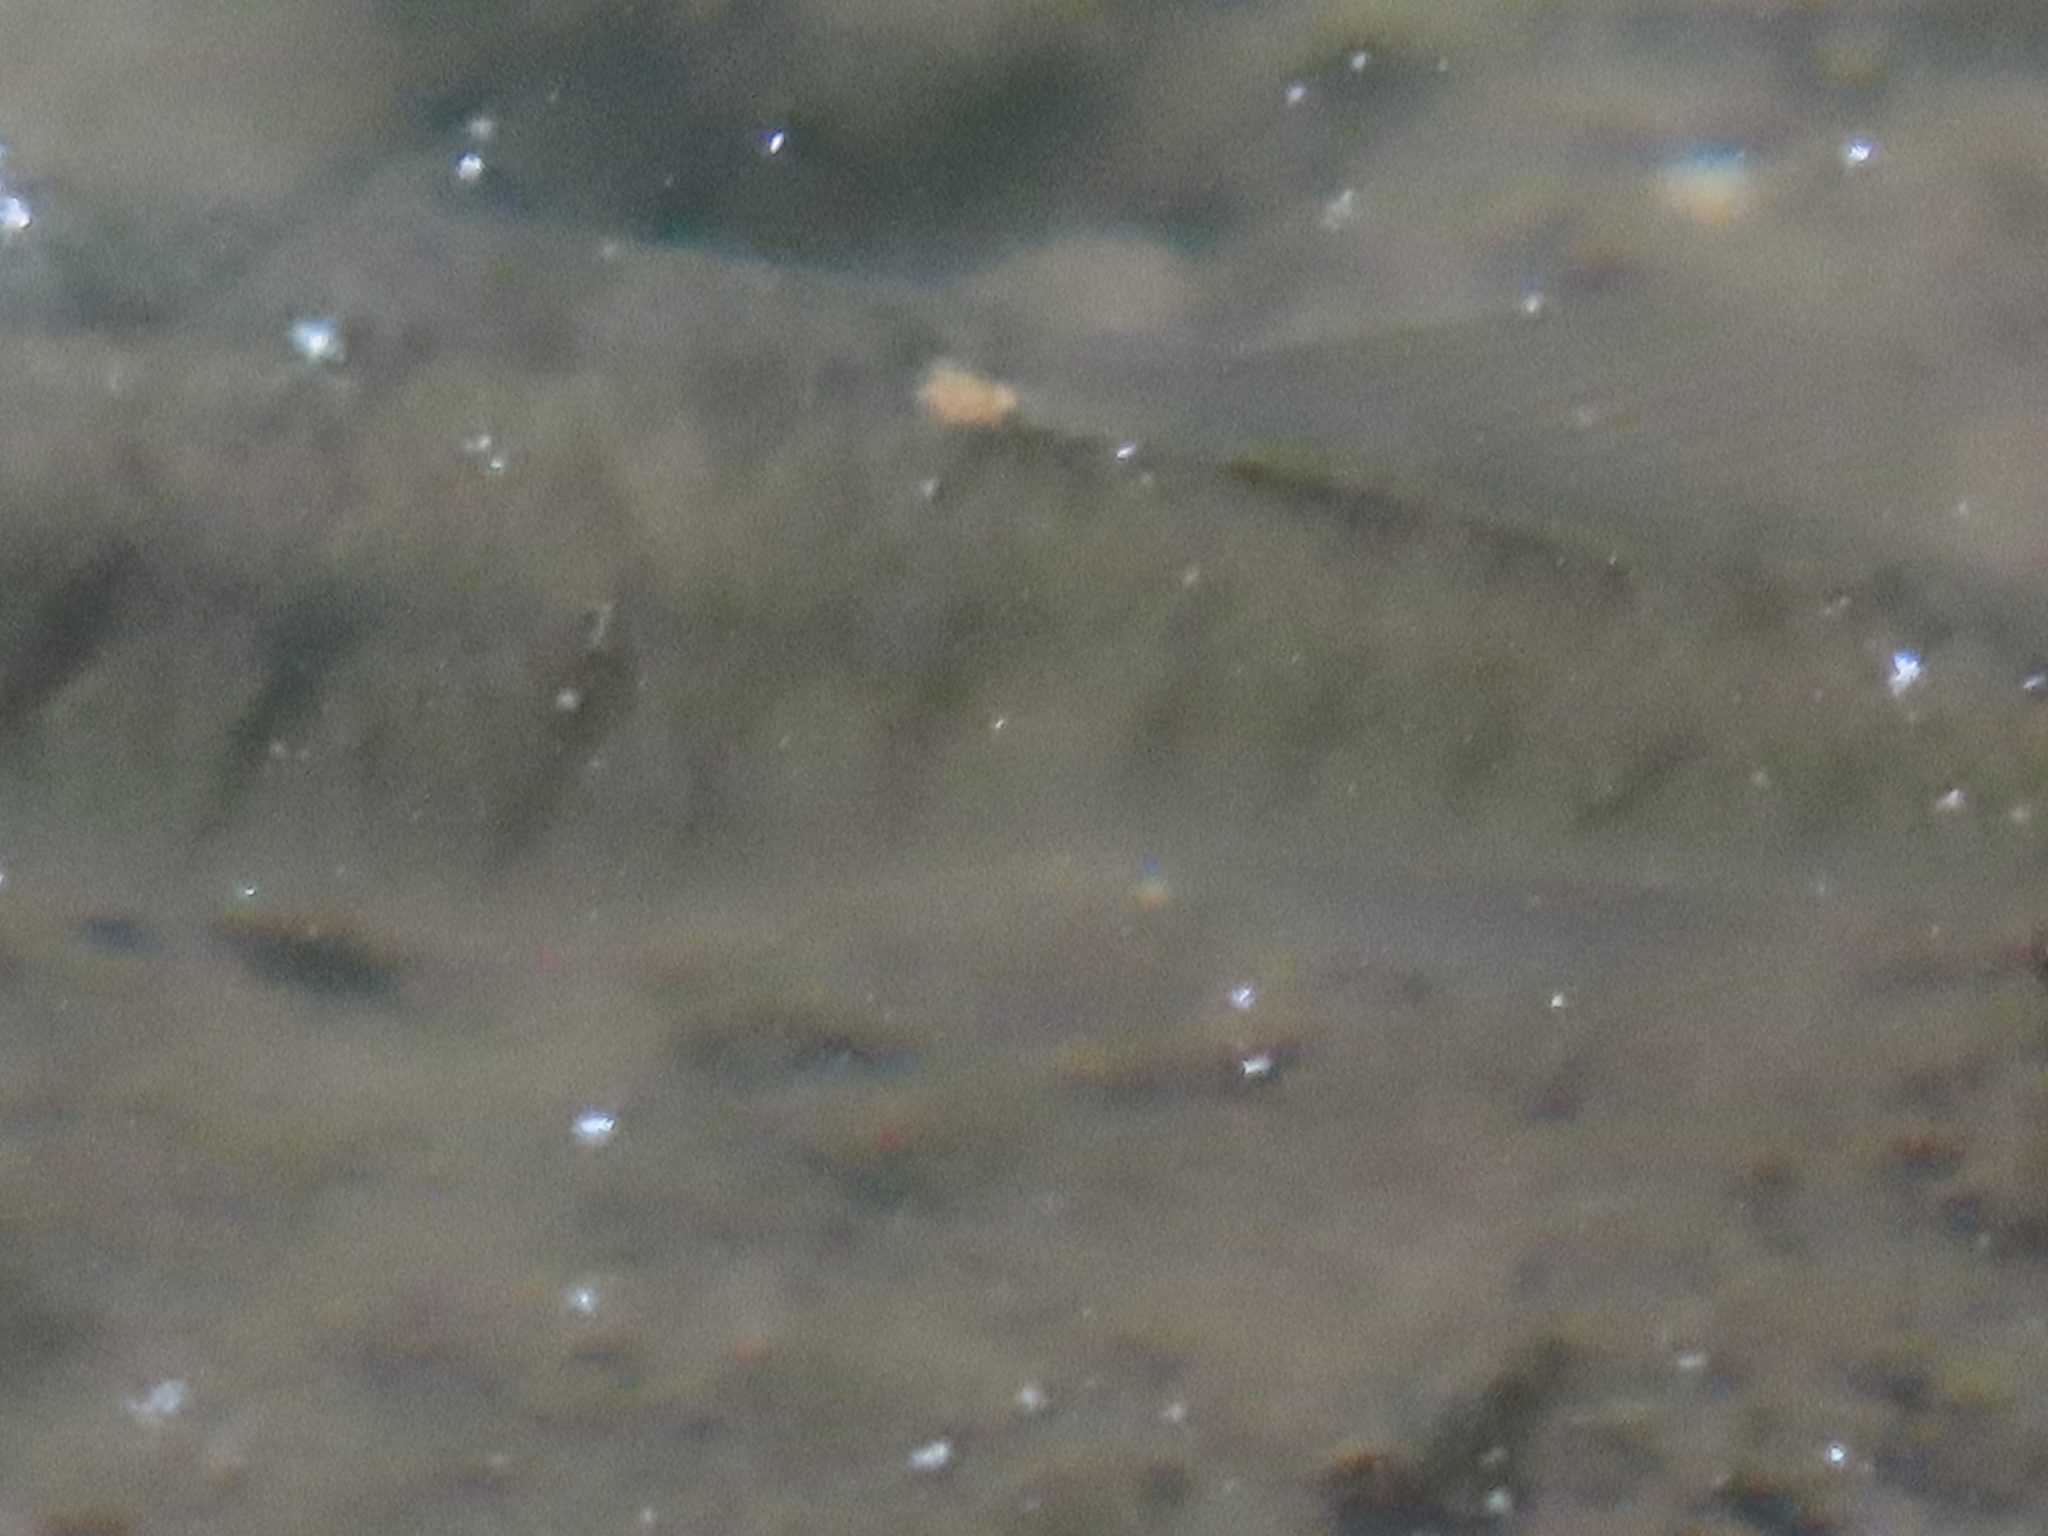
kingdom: Animalia
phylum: Chordata
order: Cyprinodontiformes
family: Fundulidae
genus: Fundulus
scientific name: Fundulus diaphanus
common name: Banded killifish
